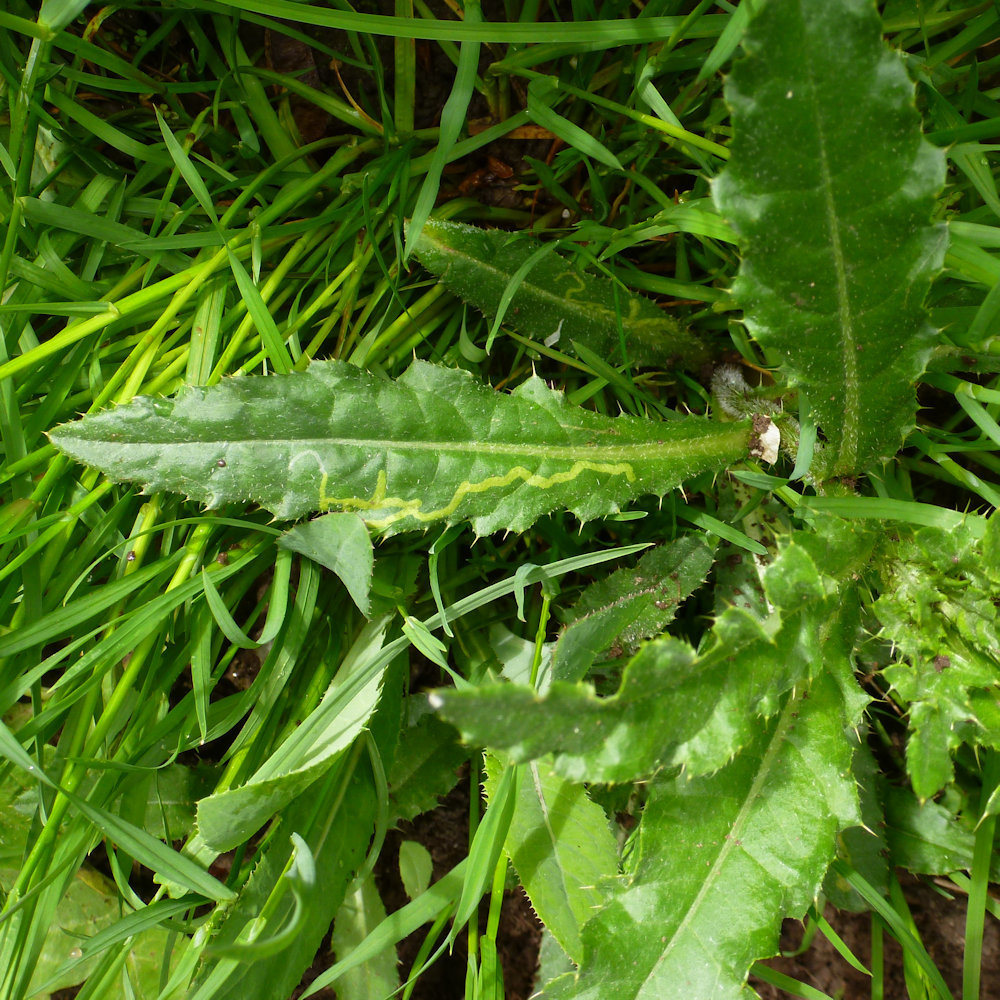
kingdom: Animalia
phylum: Arthropoda
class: Insecta
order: Diptera
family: Agromyzidae
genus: Phytomyza
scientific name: Phytomyza spinaciae
